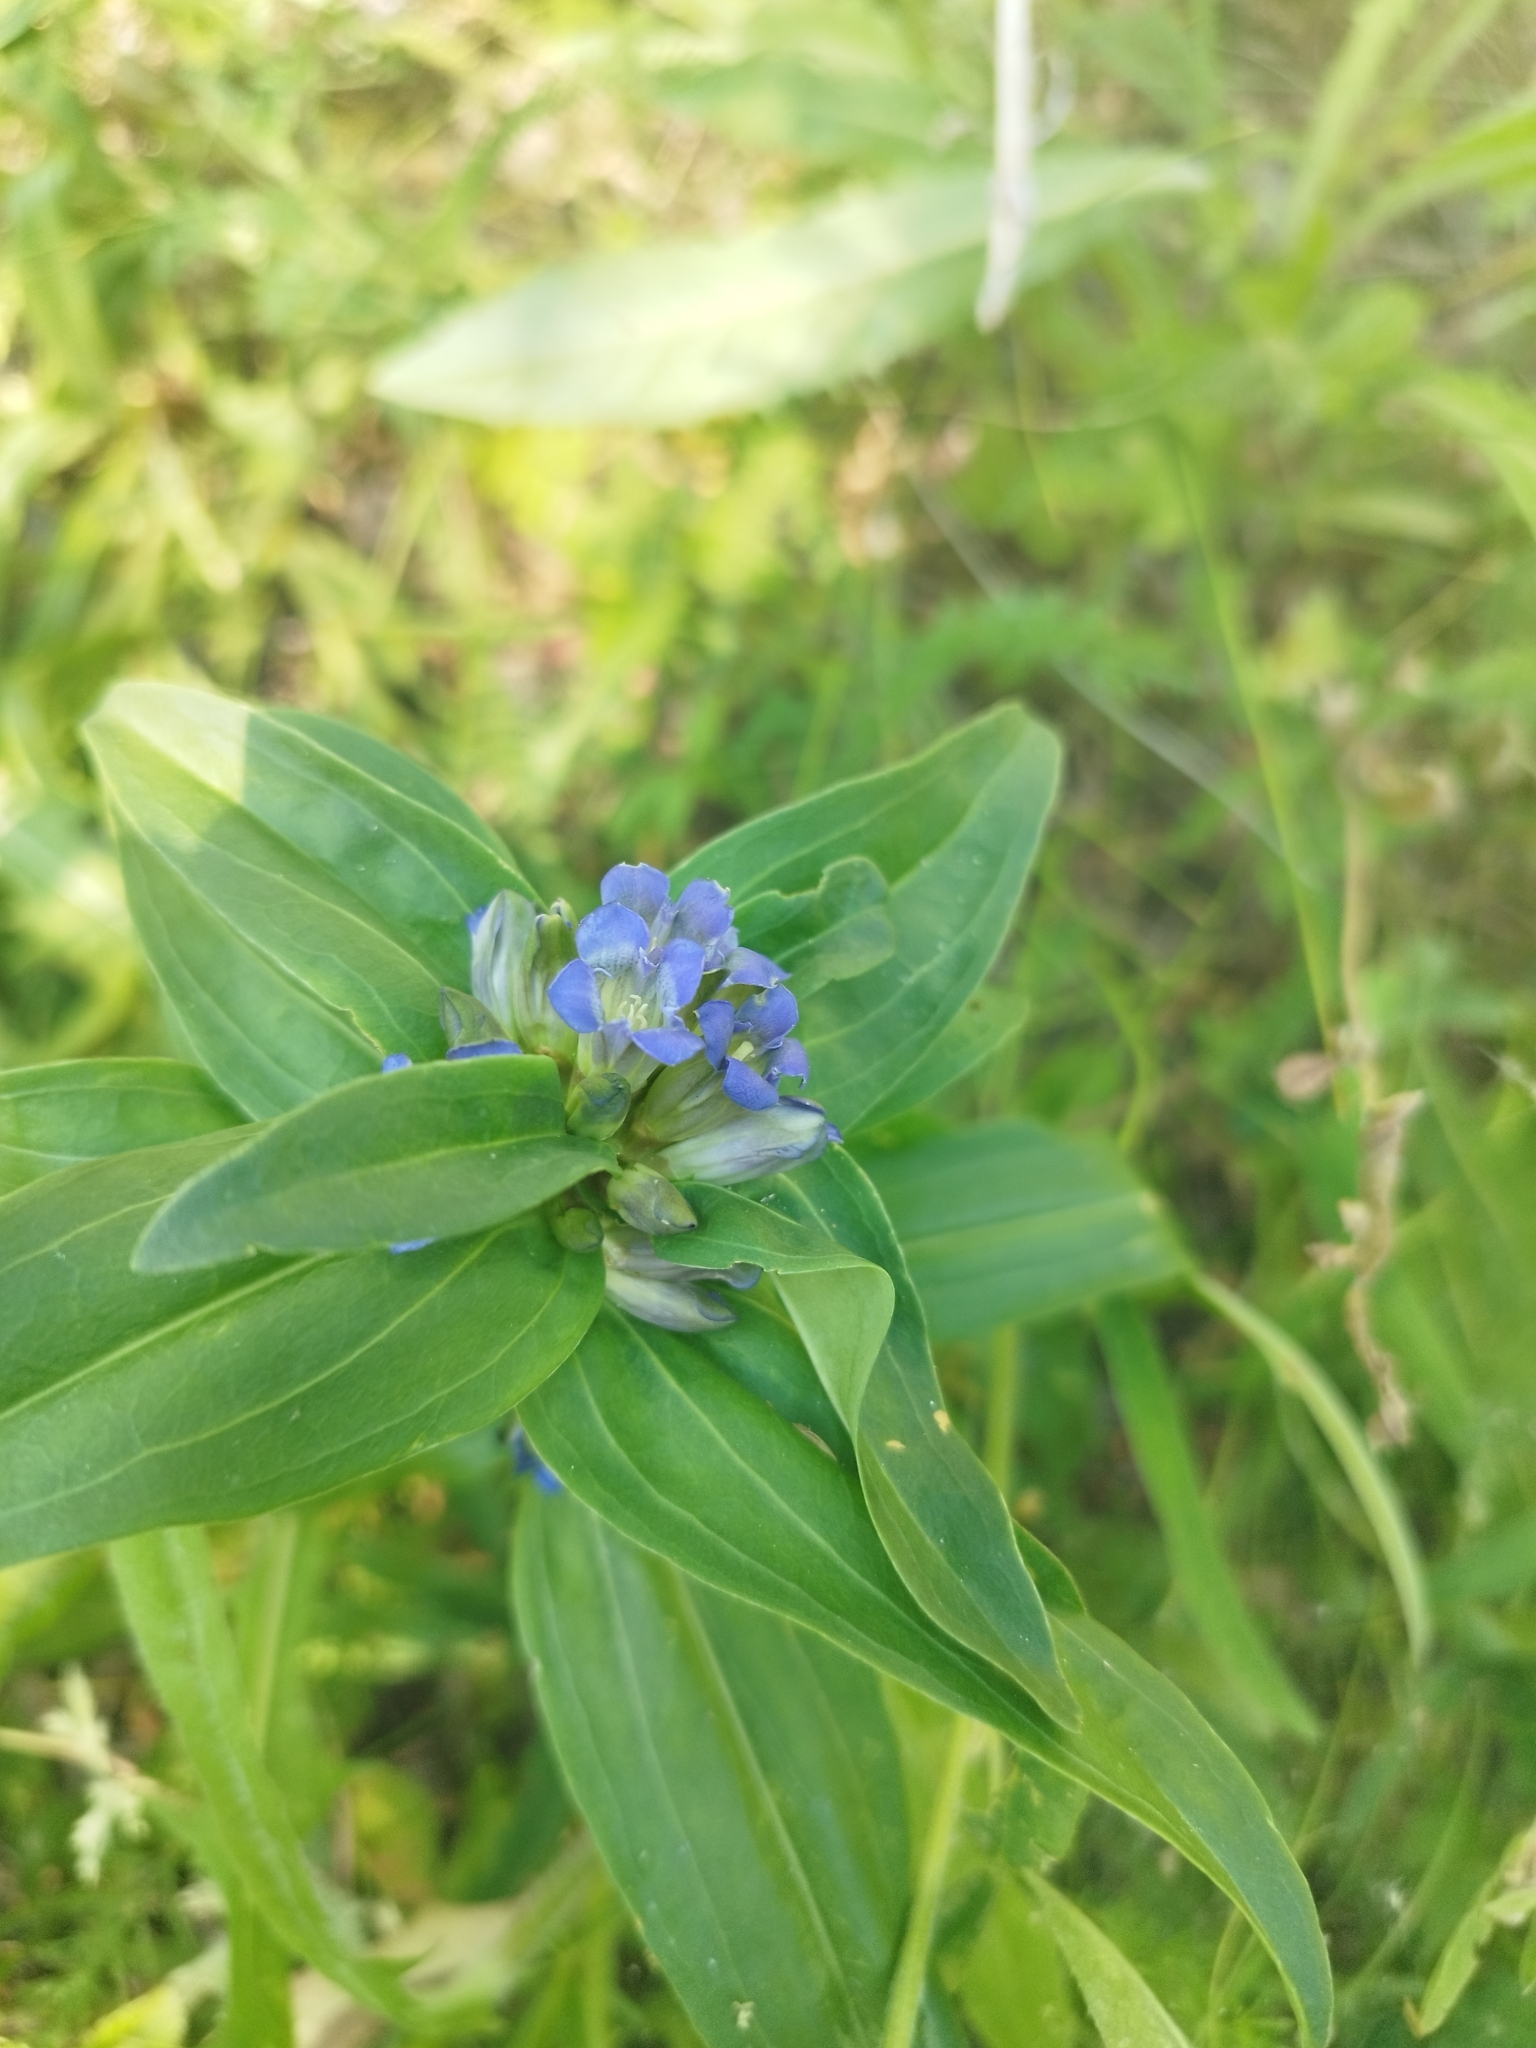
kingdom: Plantae
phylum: Tracheophyta
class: Magnoliopsida
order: Gentianales
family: Gentianaceae
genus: Gentiana
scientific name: Gentiana cruciata
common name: Cross gentian
